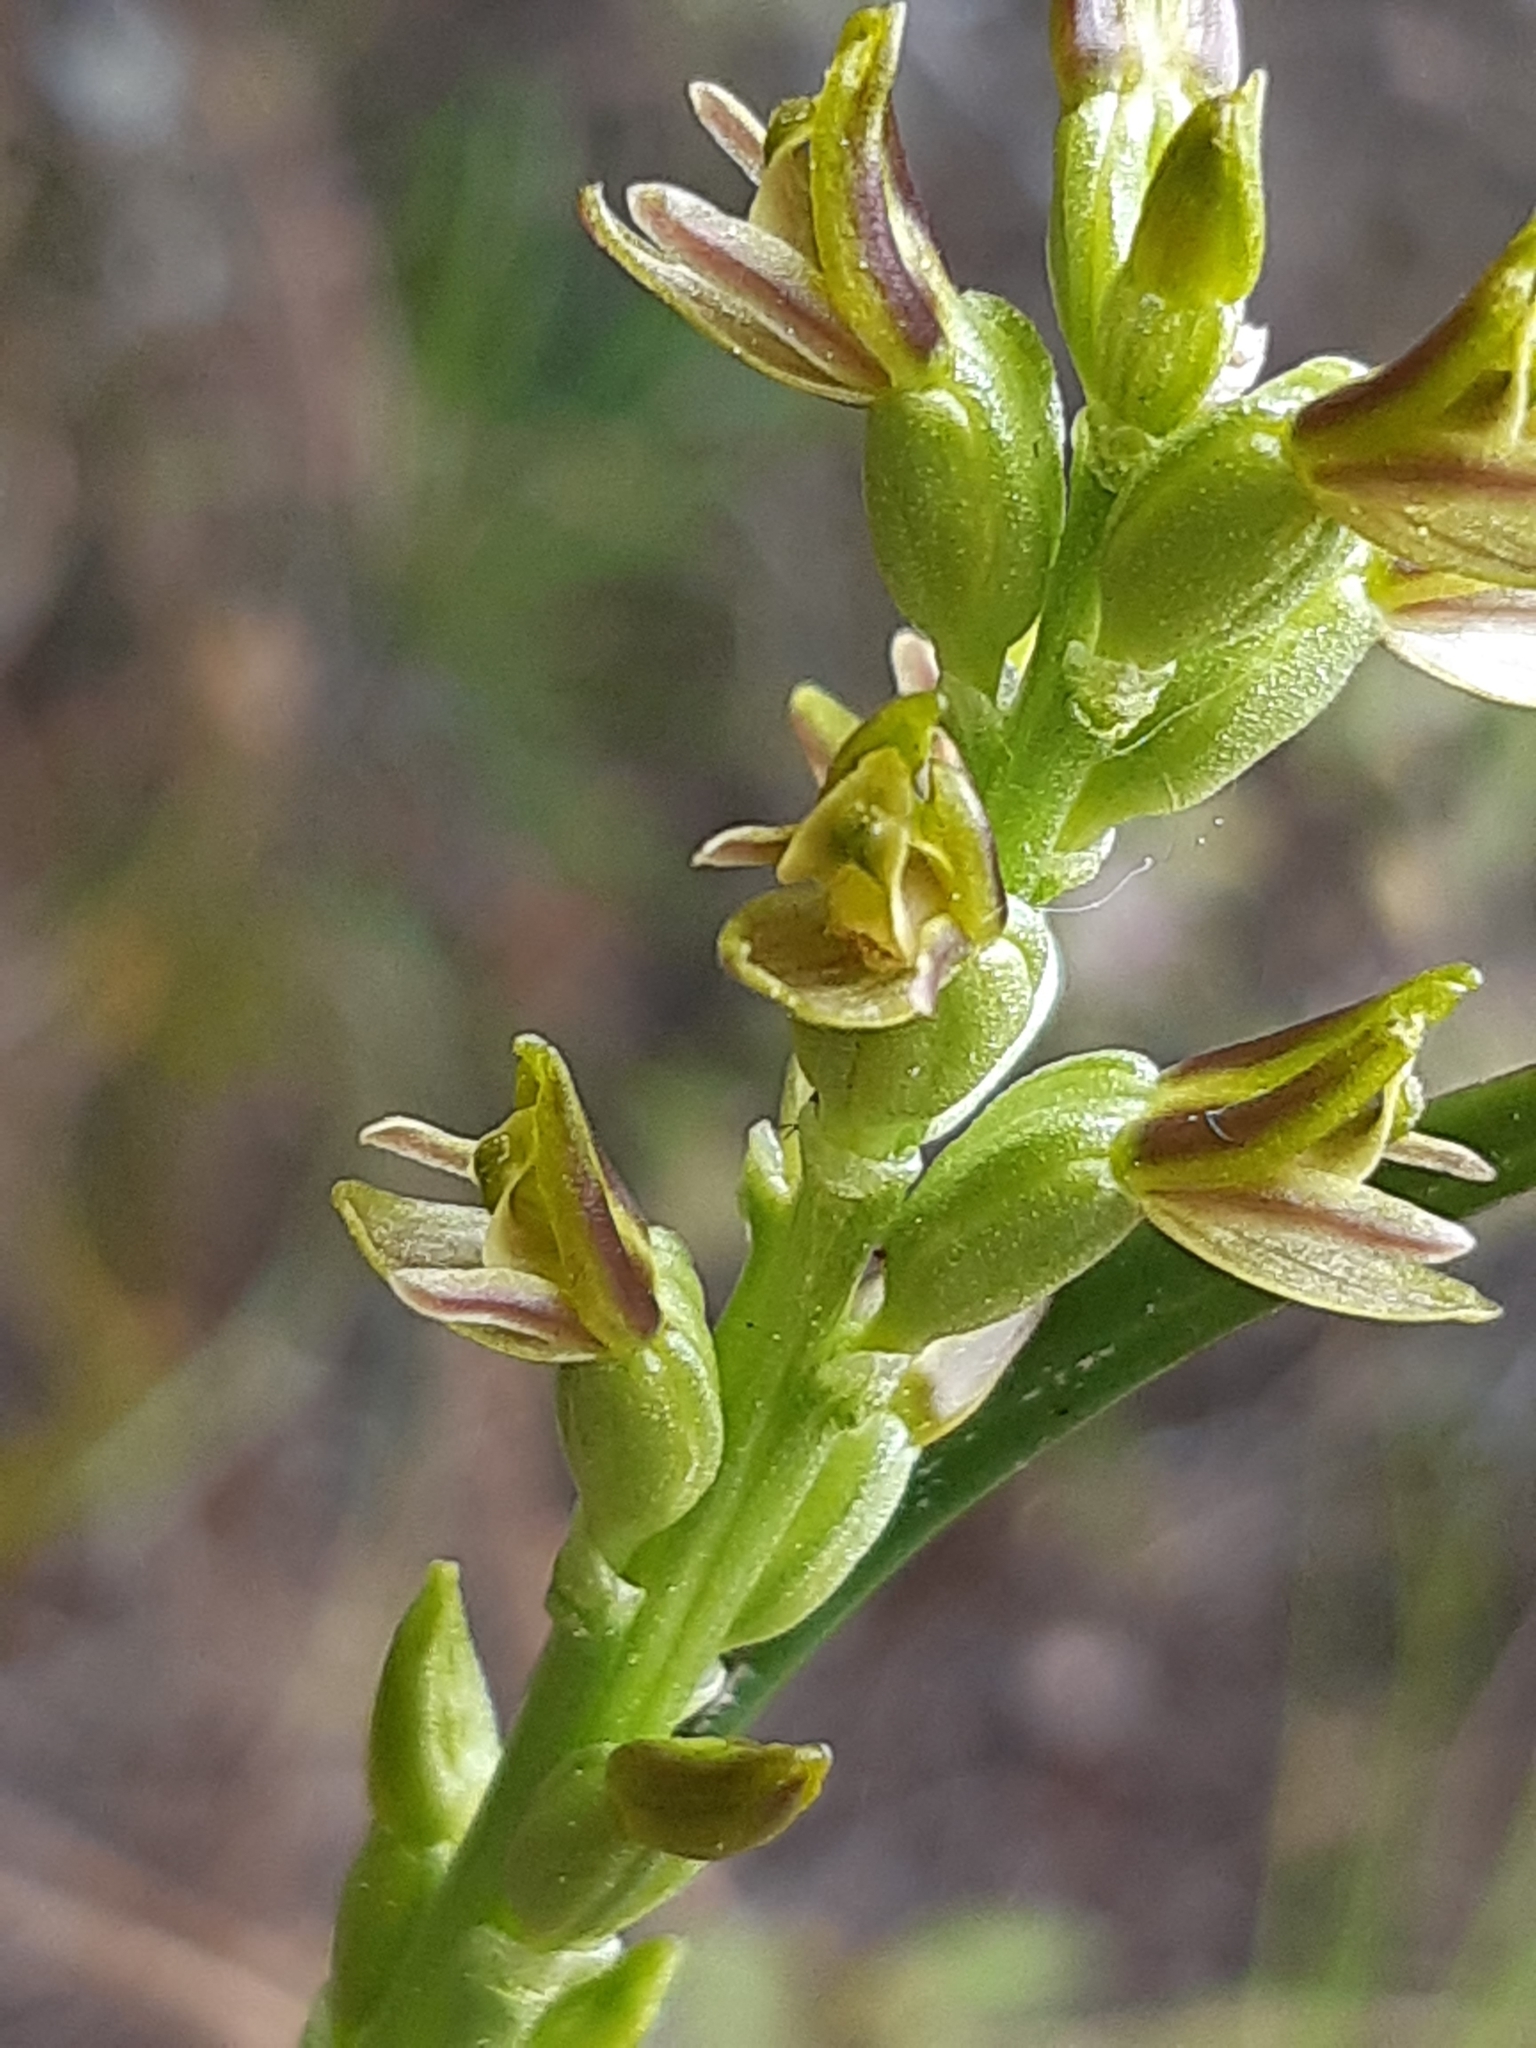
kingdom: Plantae
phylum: Tracheophyta
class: Liliopsida
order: Asparagales
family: Orchidaceae
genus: Prasophyllum
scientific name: Prasophyllum colensoi
